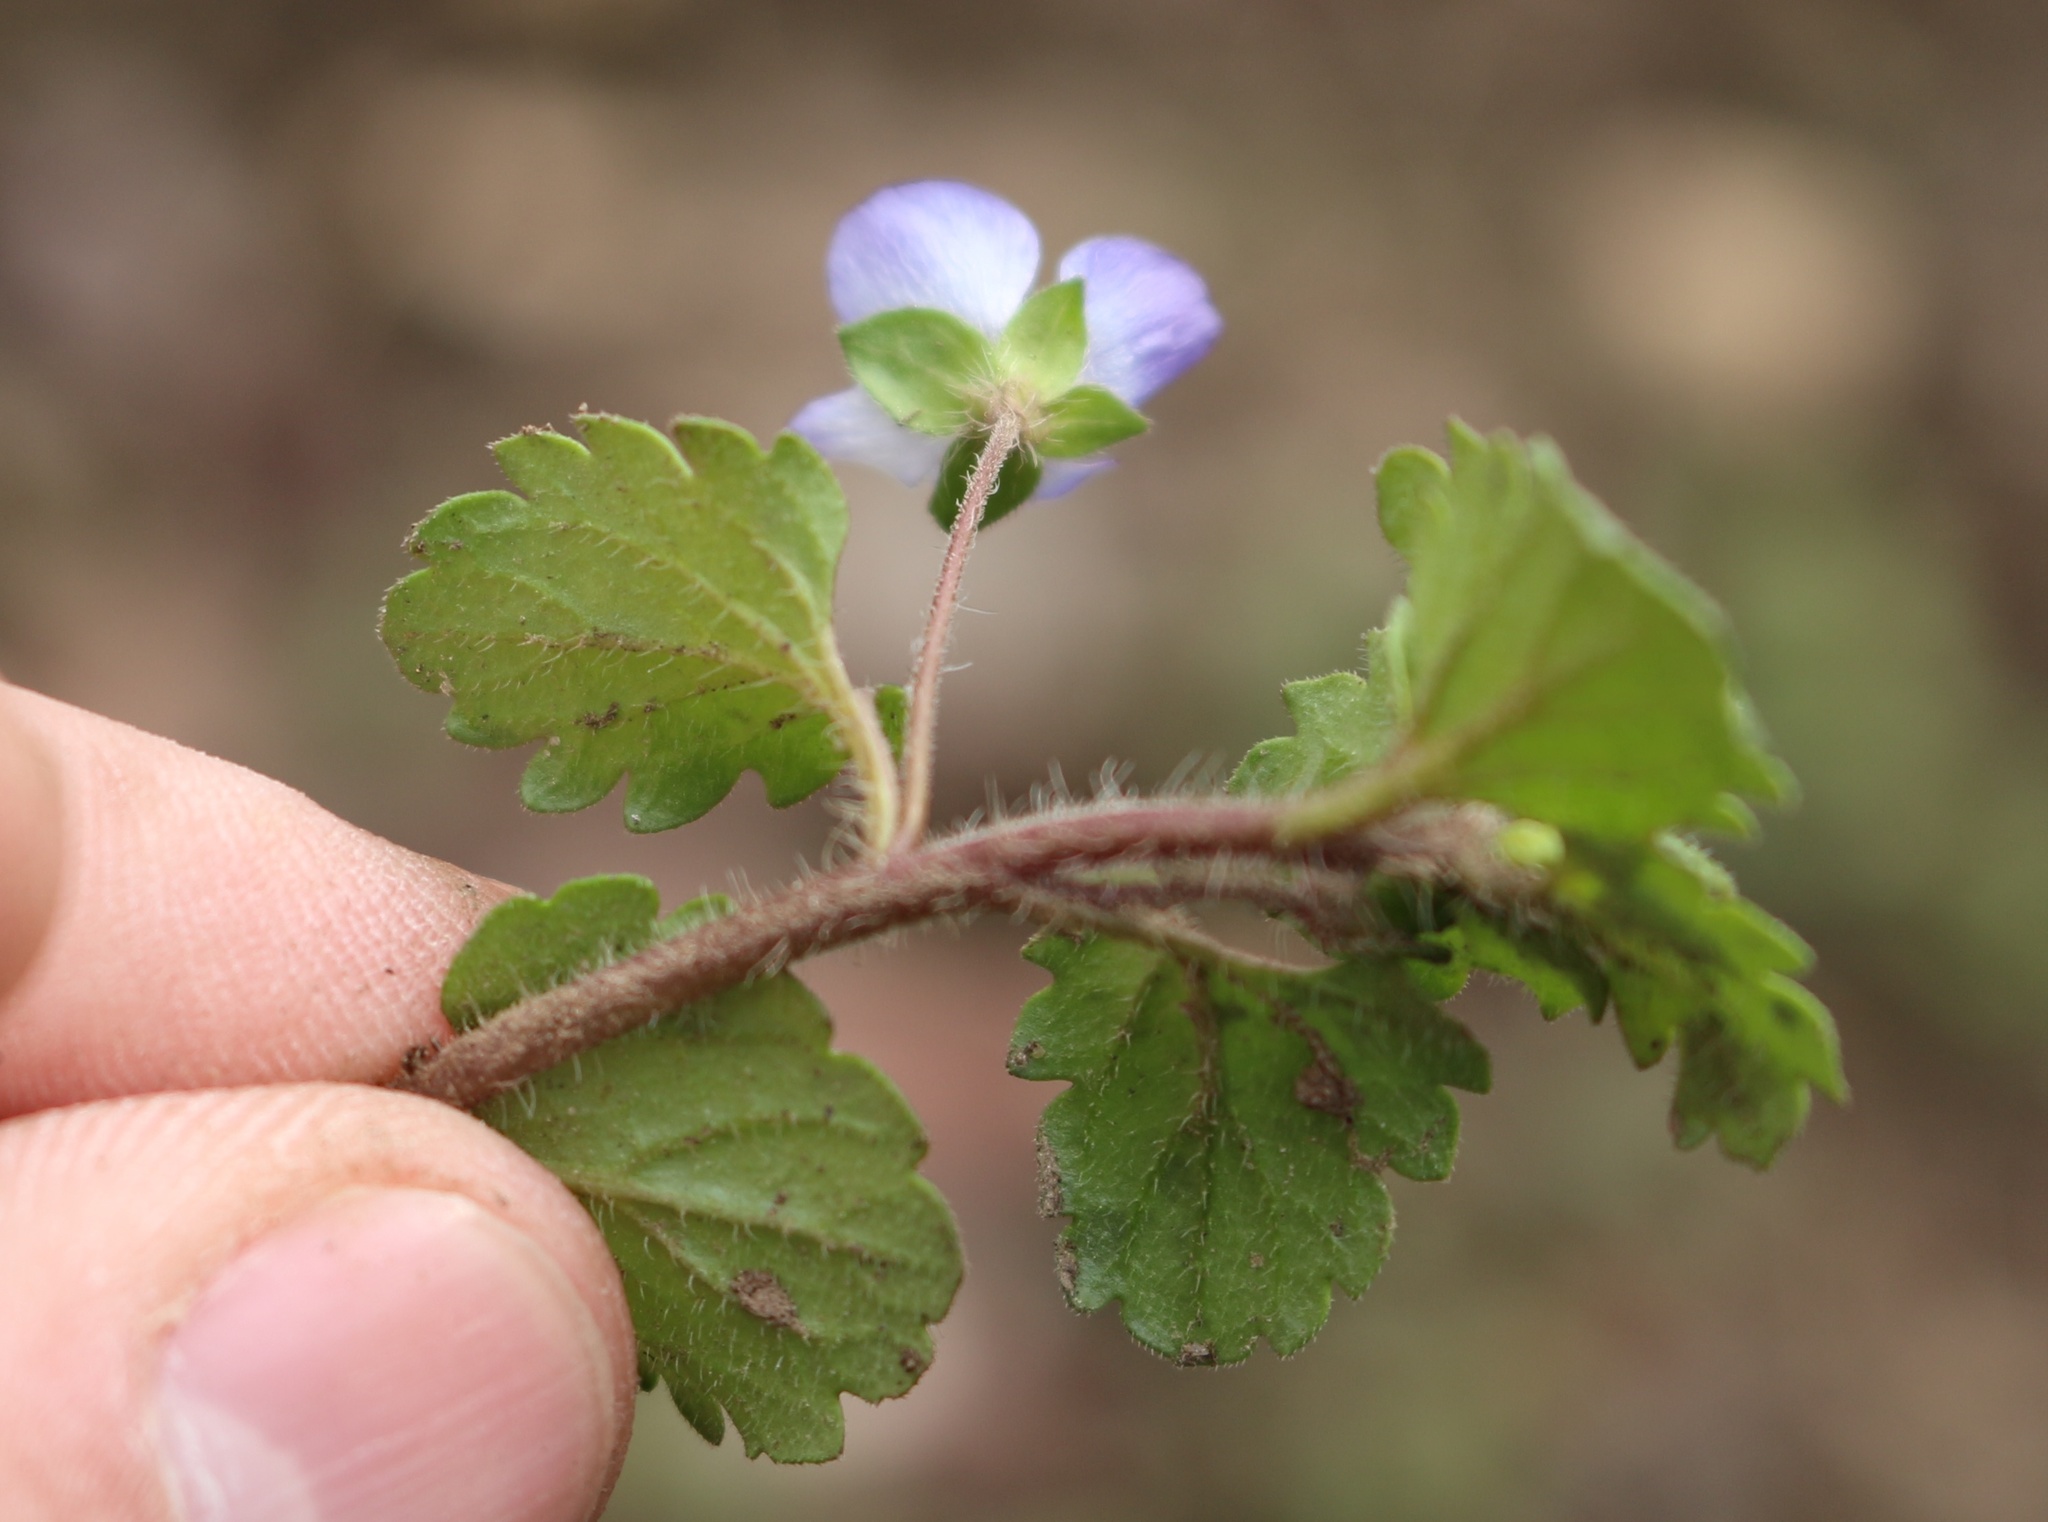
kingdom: Plantae
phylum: Tracheophyta
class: Magnoliopsida
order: Lamiales
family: Plantaginaceae
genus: Veronica
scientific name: Veronica persica
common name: Common field-speedwell
